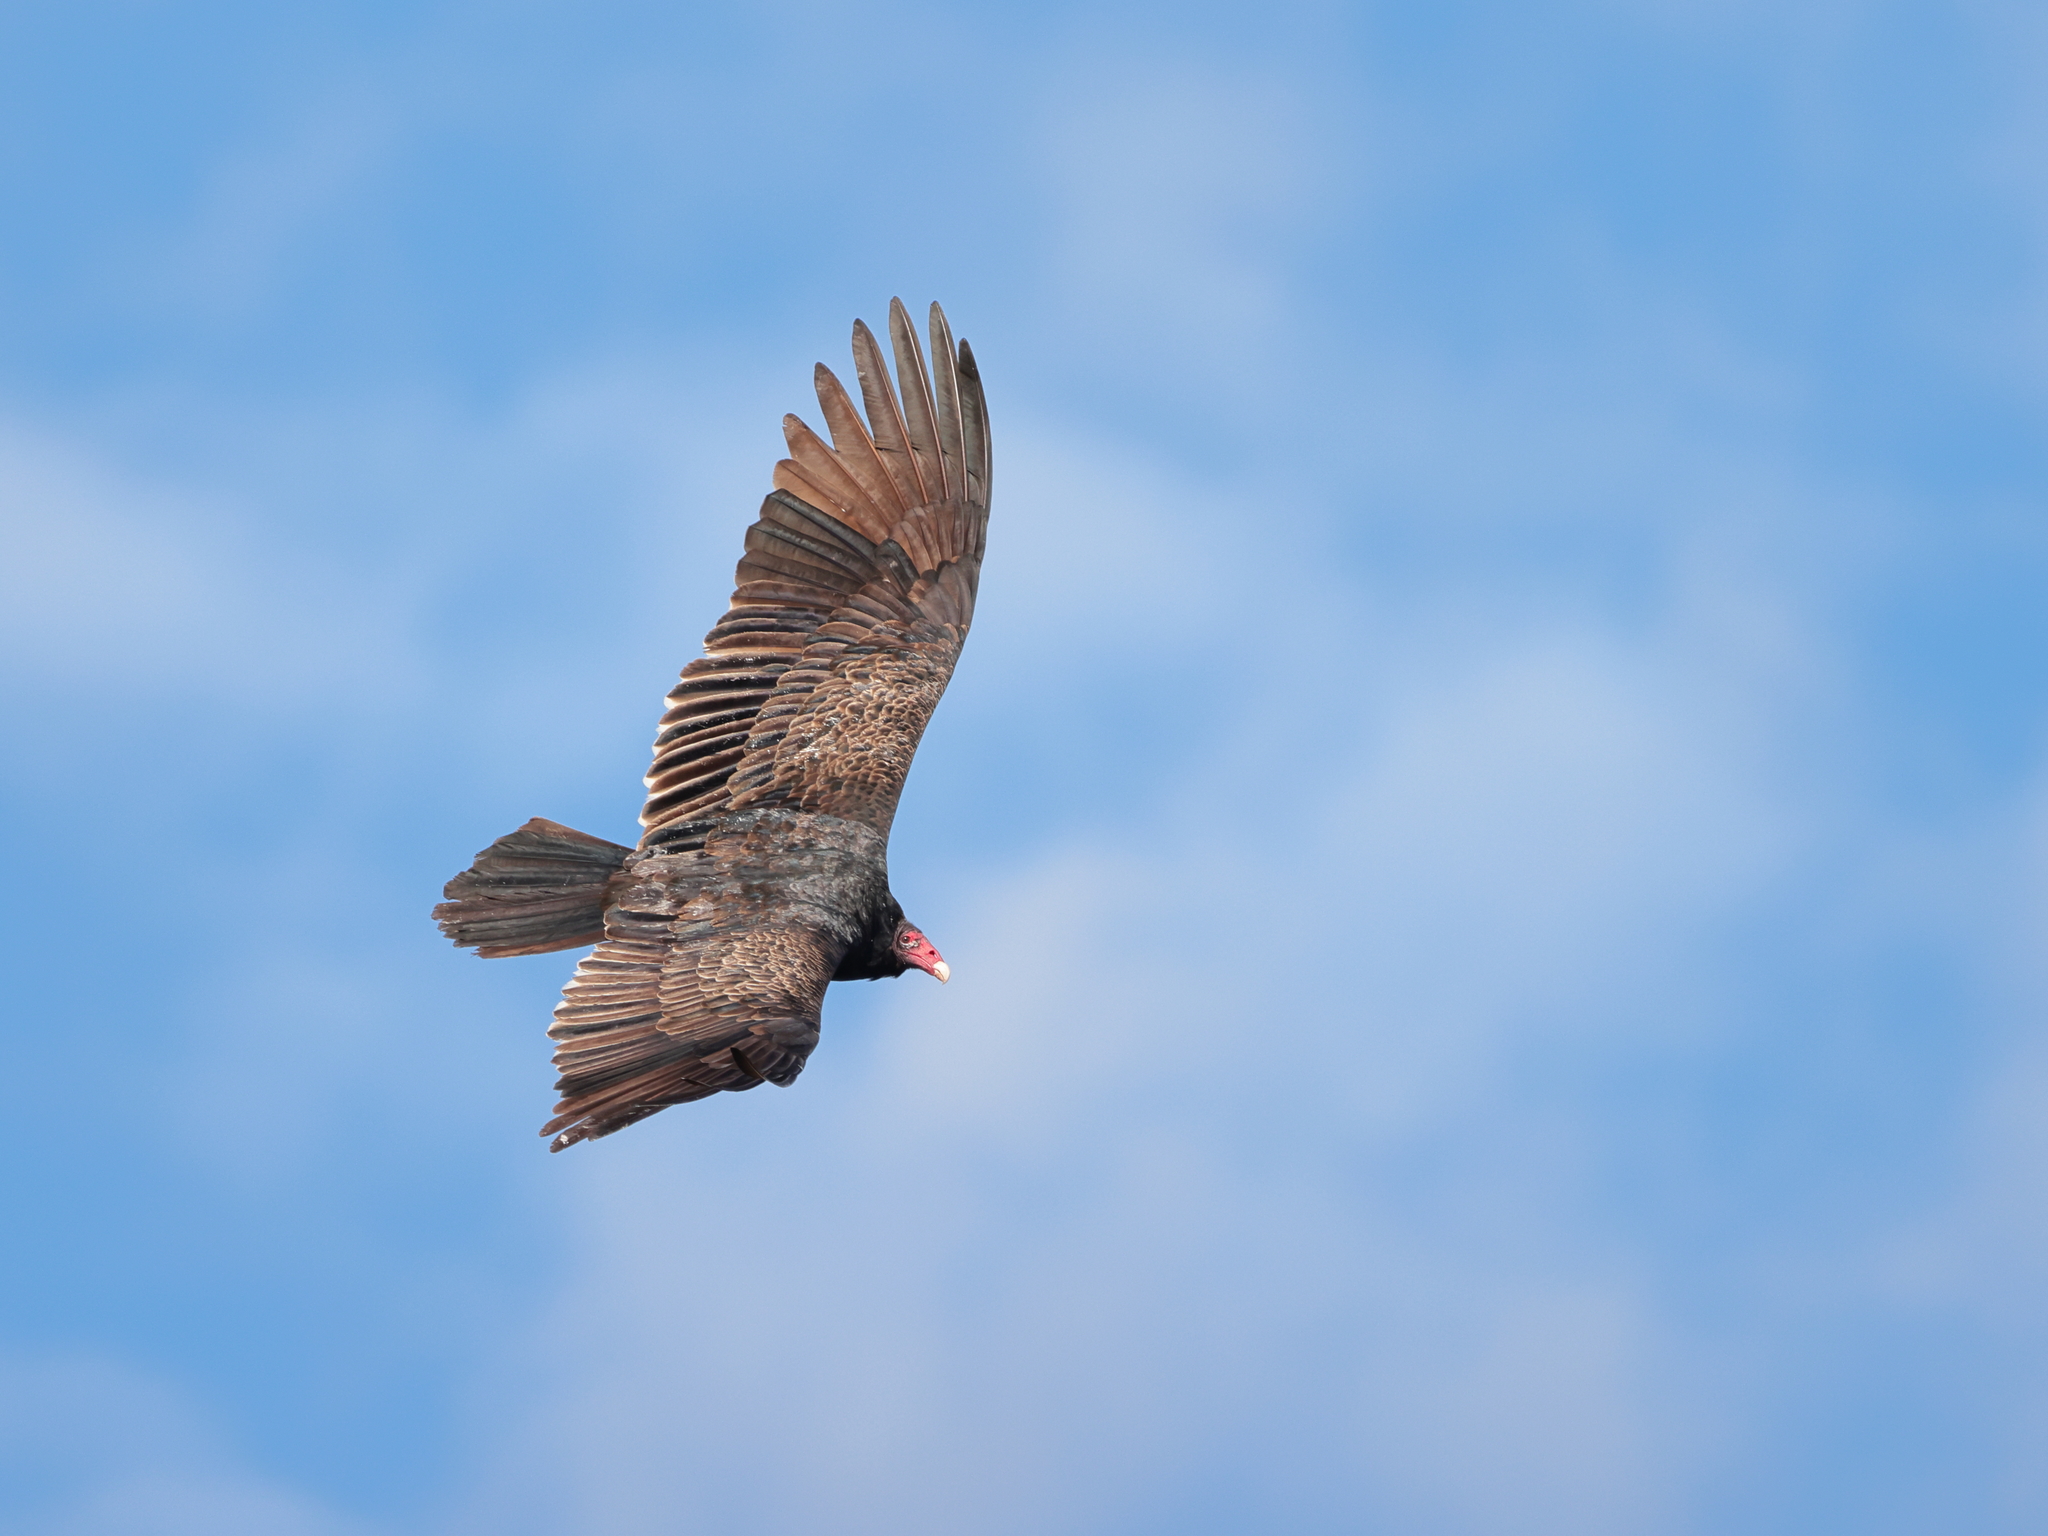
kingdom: Animalia
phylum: Chordata
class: Aves
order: Accipitriformes
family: Cathartidae
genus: Cathartes
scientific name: Cathartes aura
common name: Turkey vulture
